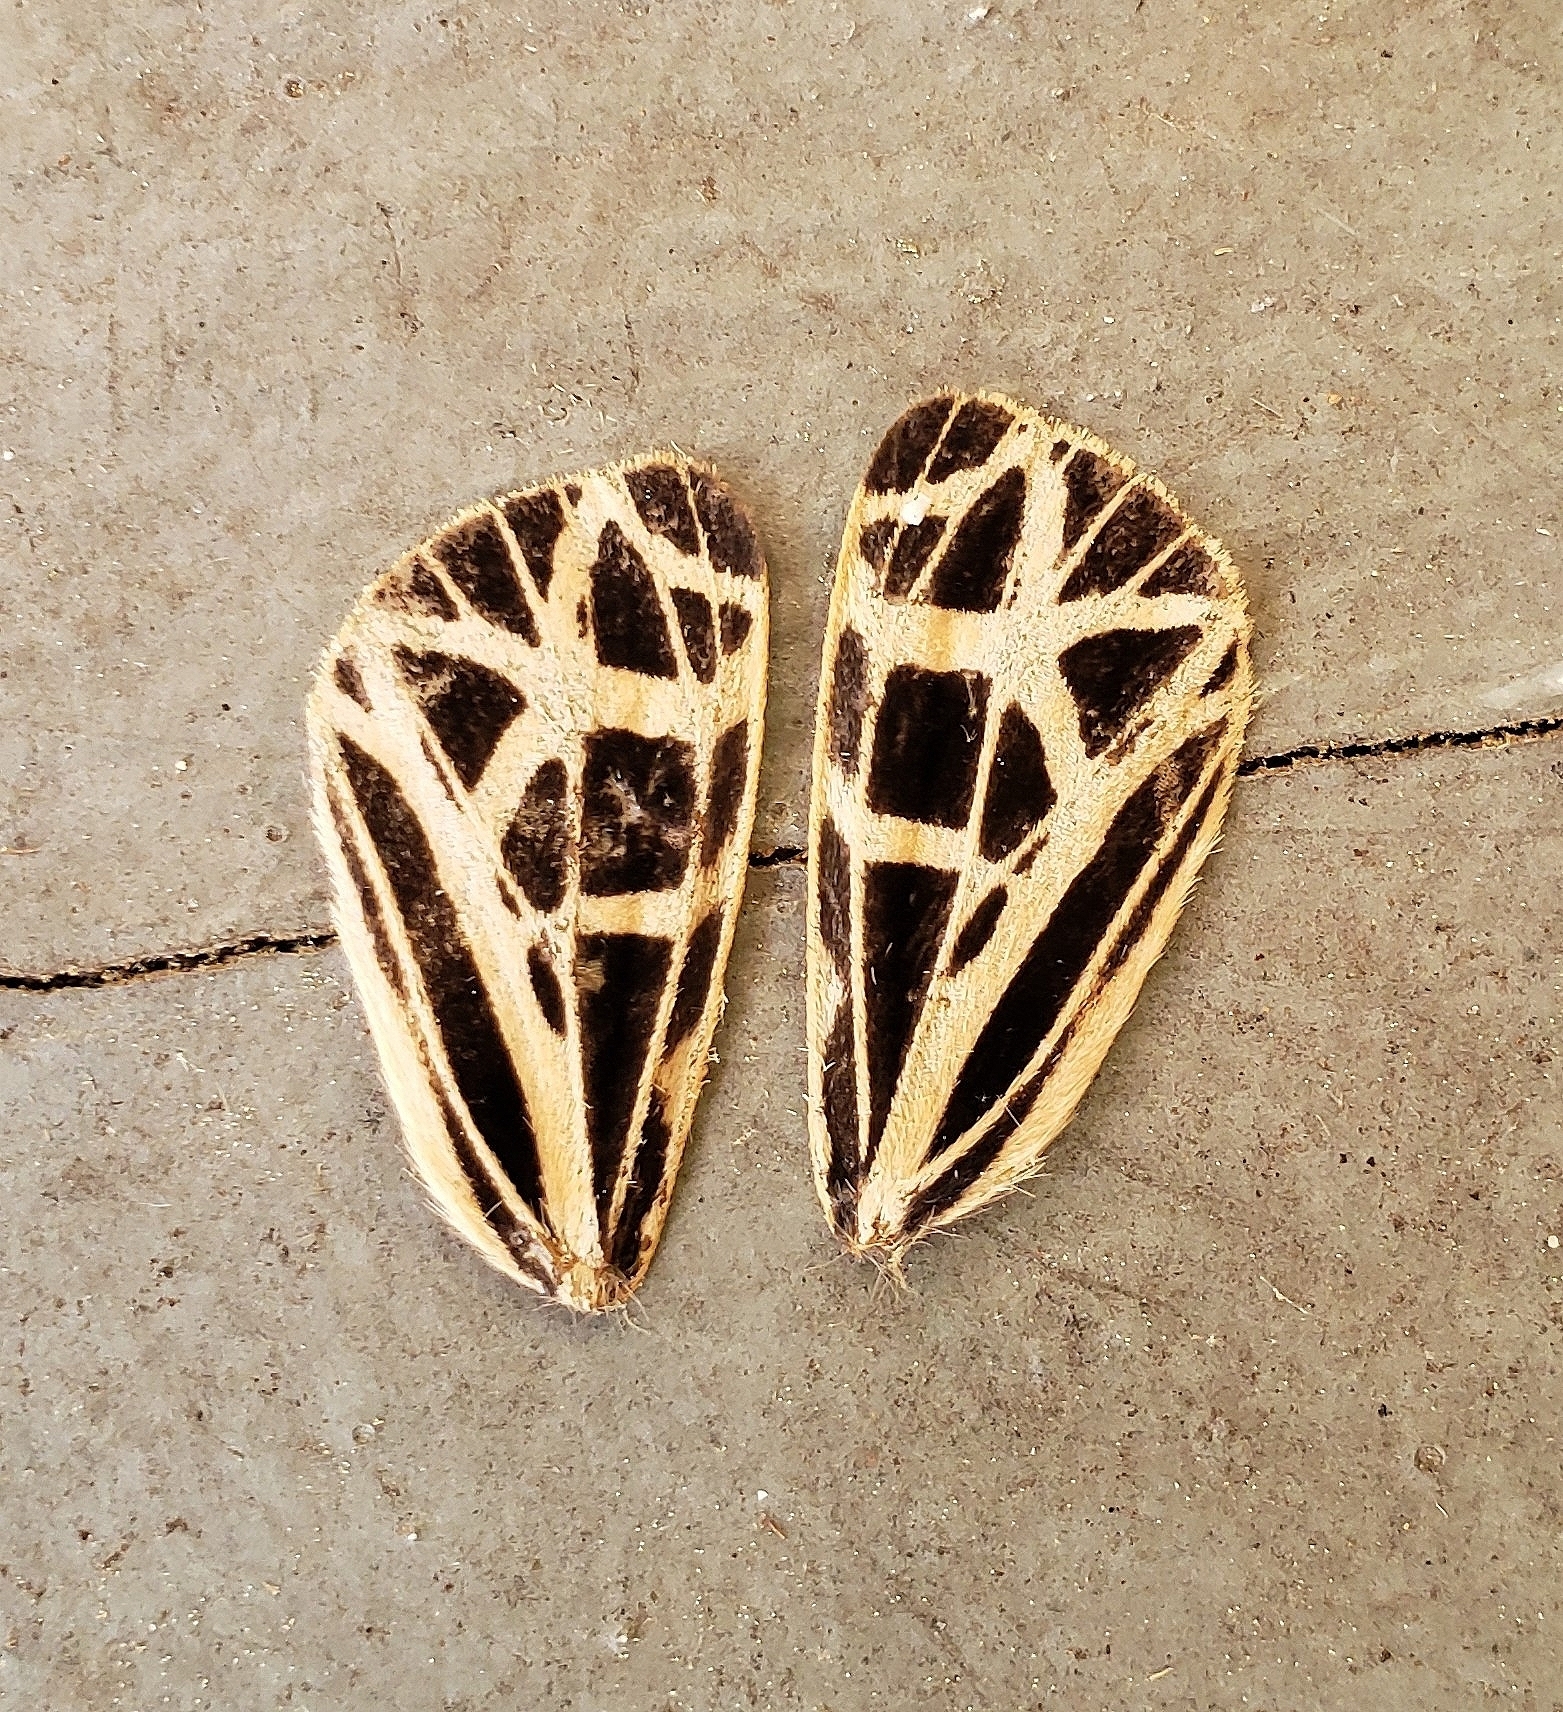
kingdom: Animalia
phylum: Arthropoda
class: Insecta
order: Lepidoptera
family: Erebidae
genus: Apantesis
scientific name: Apantesis
